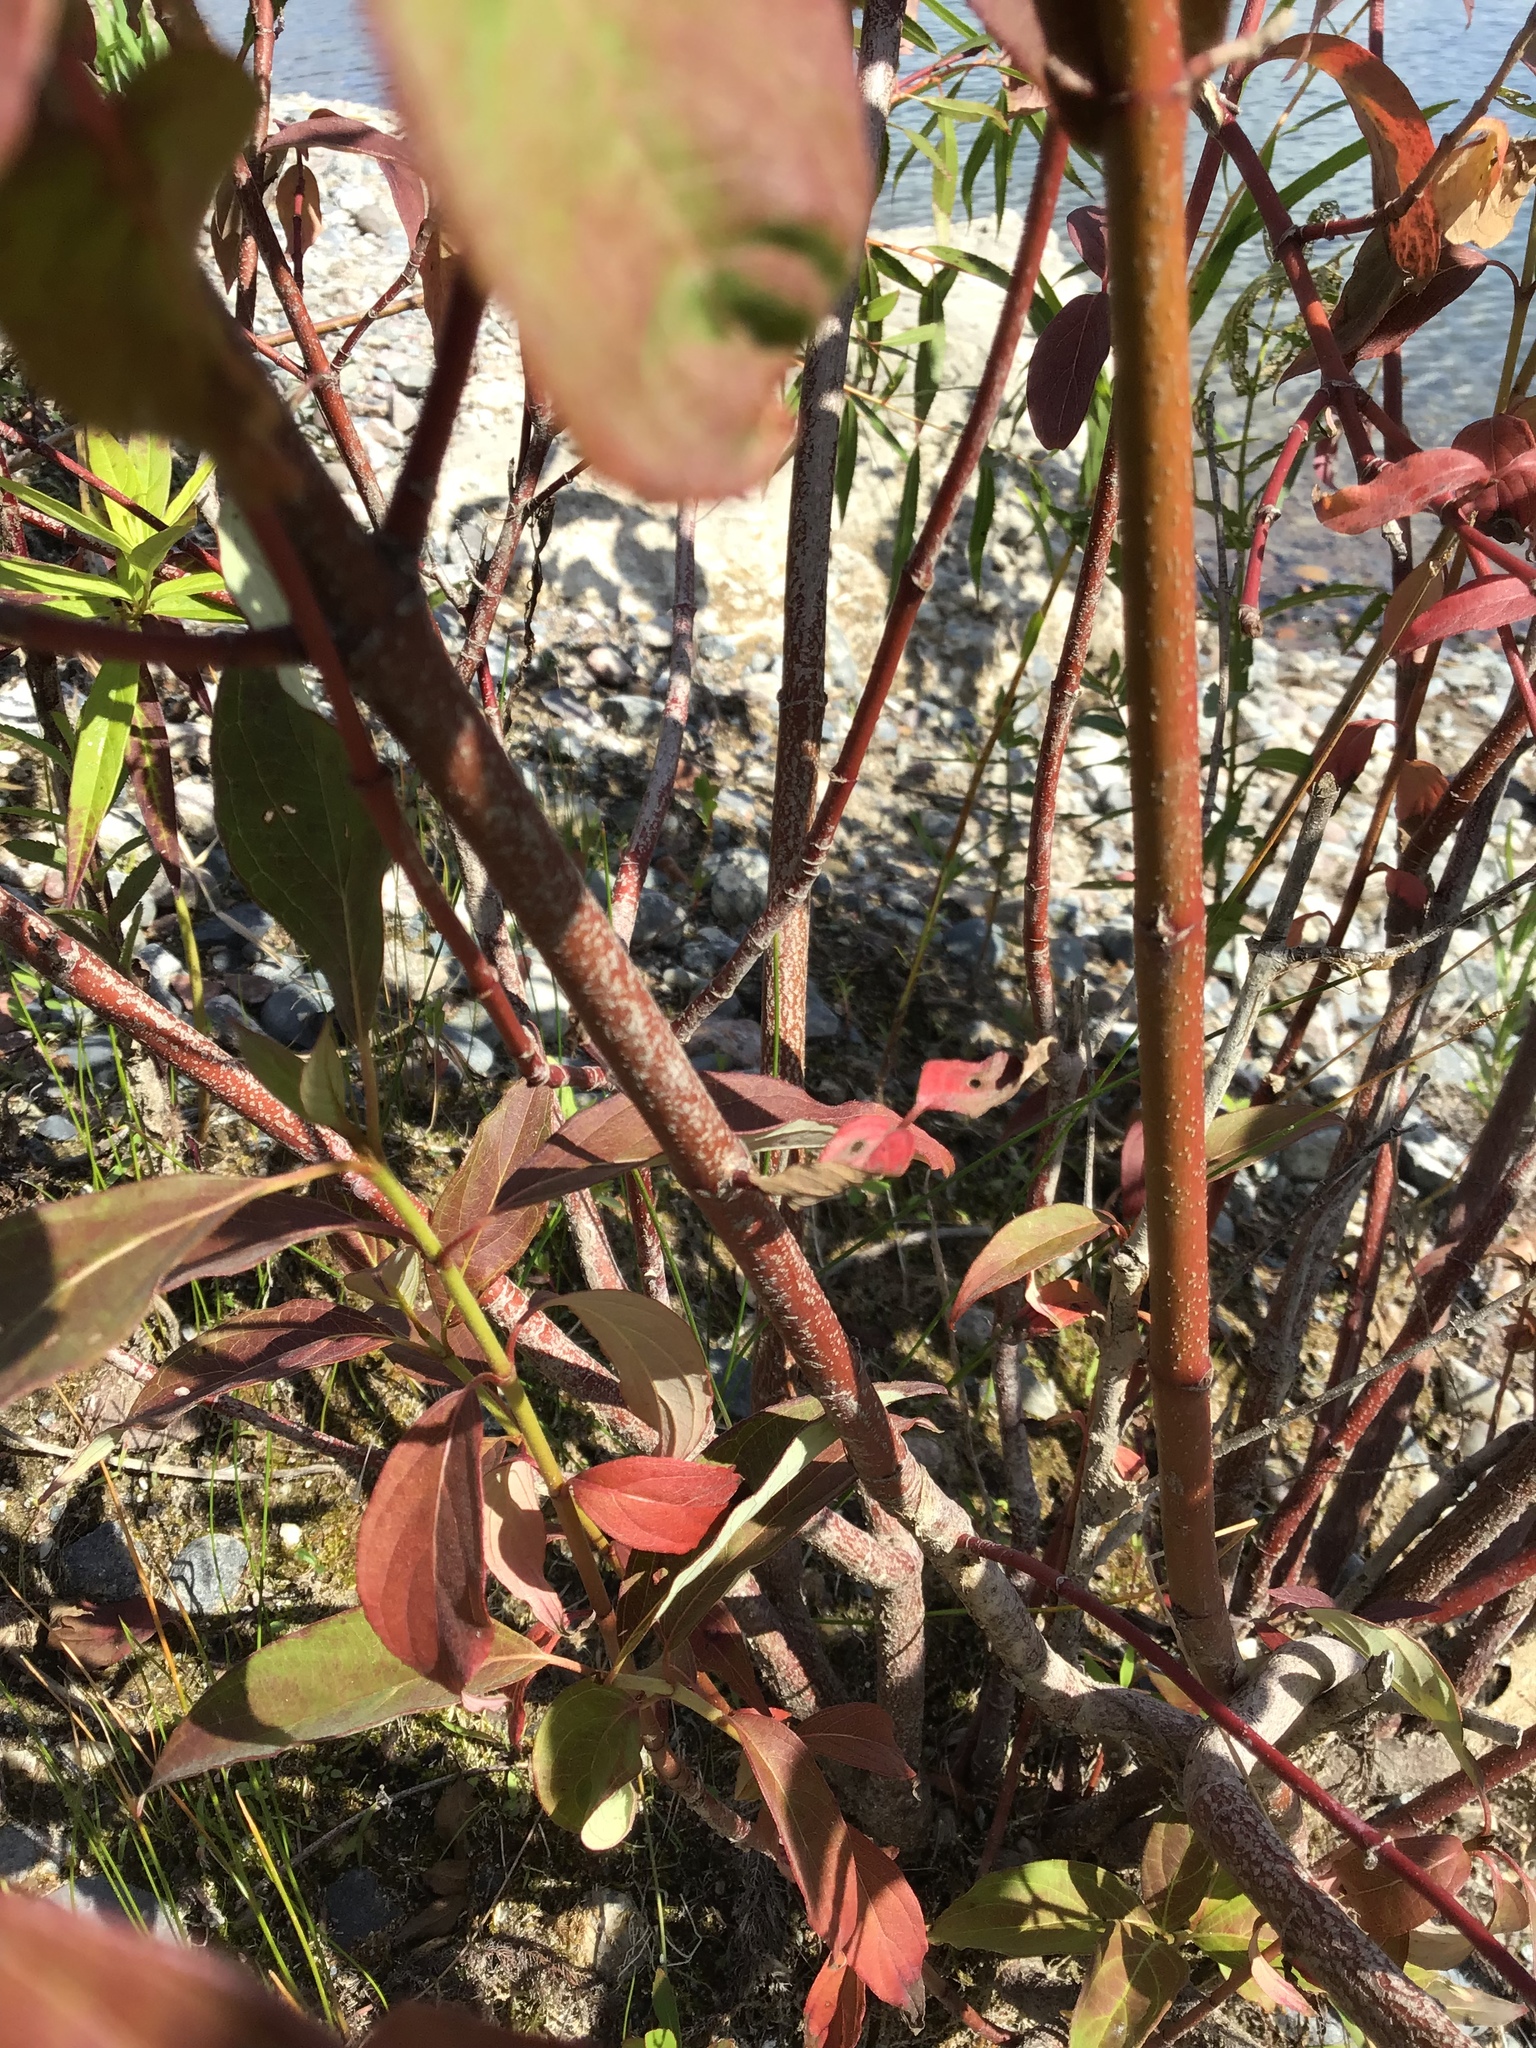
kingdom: Plantae
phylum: Tracheophyta
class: Magnoliopsida
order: Cornales
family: Cornaceae
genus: Cornus
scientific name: Cornus amomum
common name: Silky dogwood
